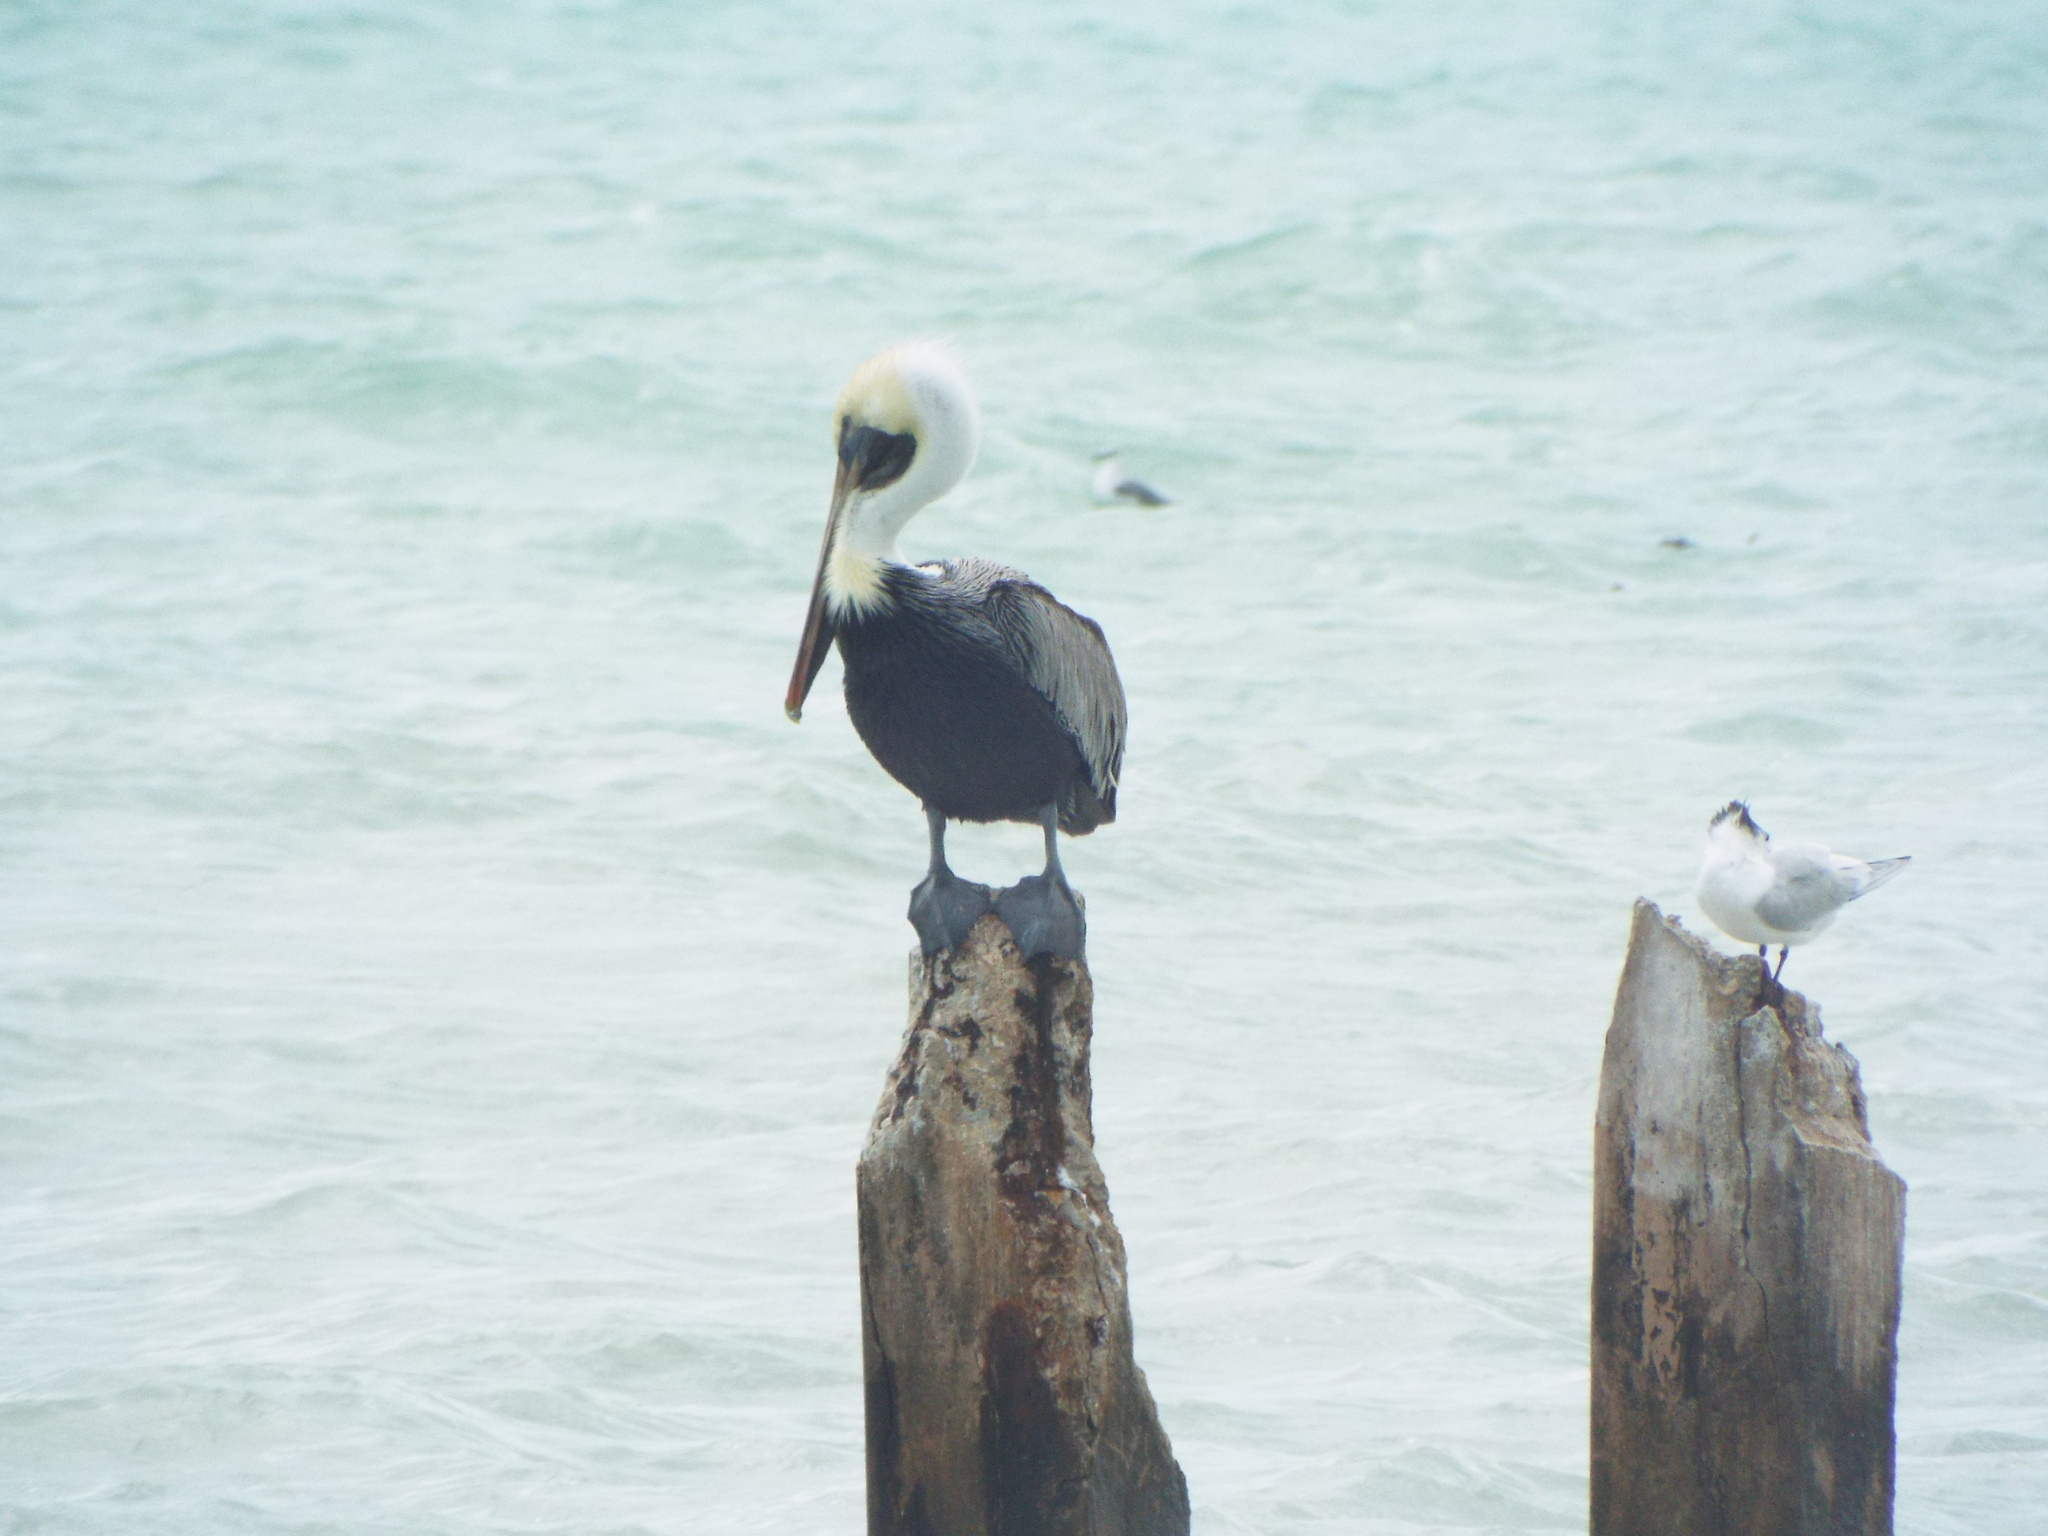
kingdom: Animalia
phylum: Chordata
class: Aves
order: Pelecaniformes
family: Pelecanidae
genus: Pelecanus
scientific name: Pelecanus occidentalis
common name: Brown pelican
